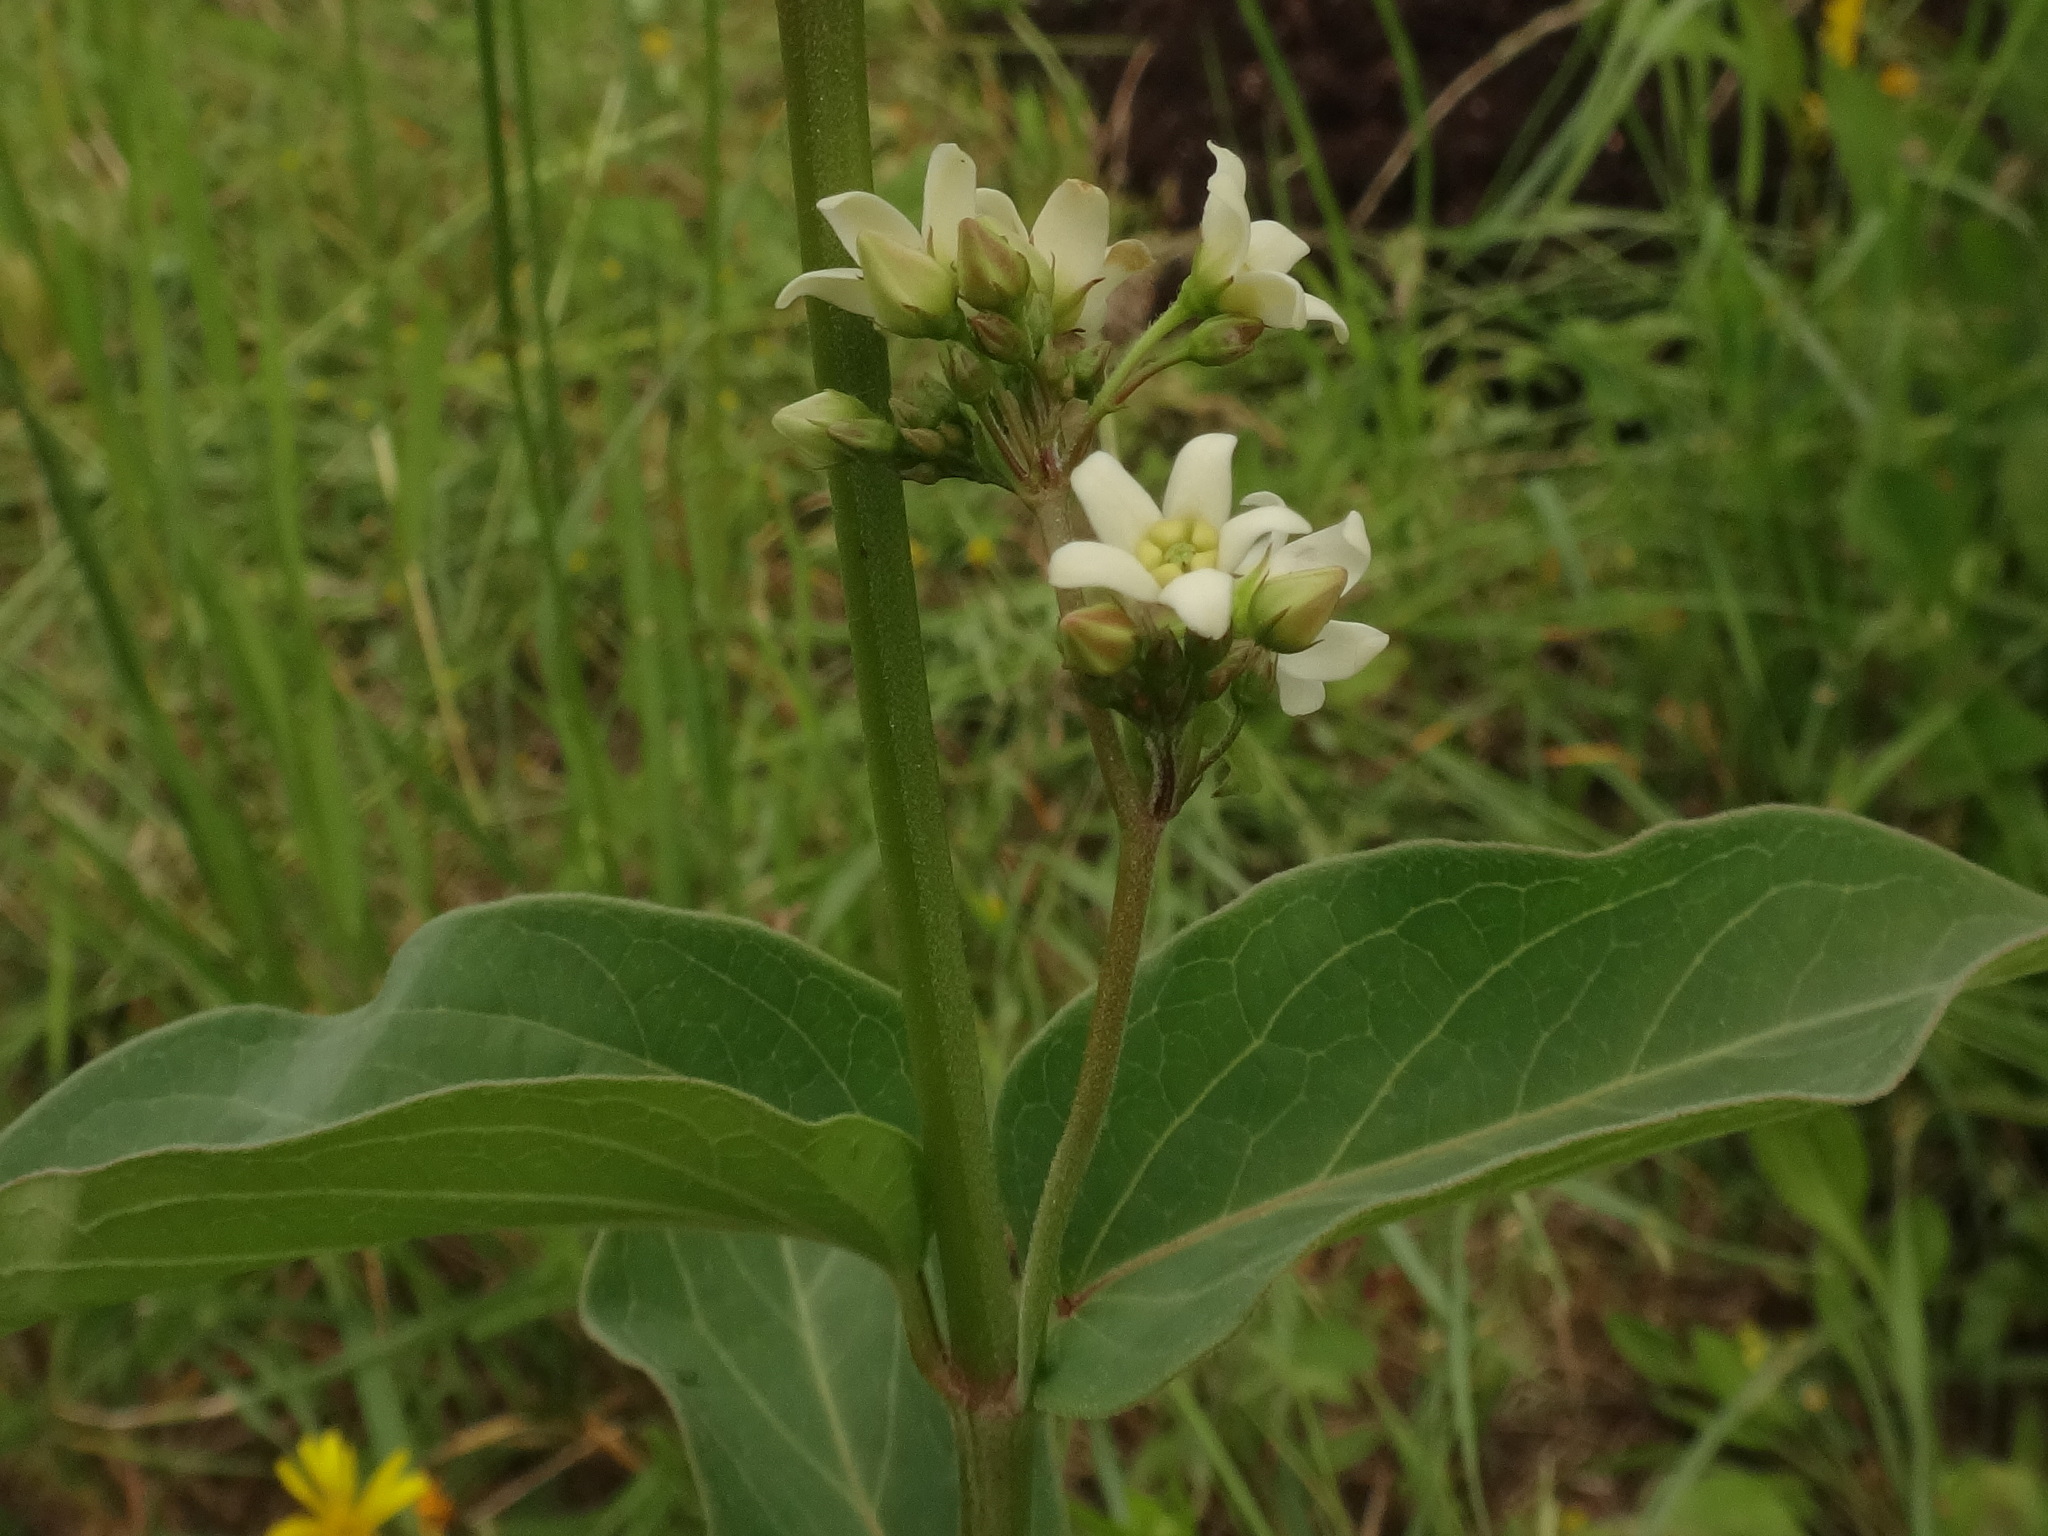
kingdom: Plantae
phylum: Tracheophyta
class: Magnoliopsida
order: Gentianales
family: Apocynaceae
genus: Vincetoxicum
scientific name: Vincetoxicum hirundinaria
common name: White swallowwort
